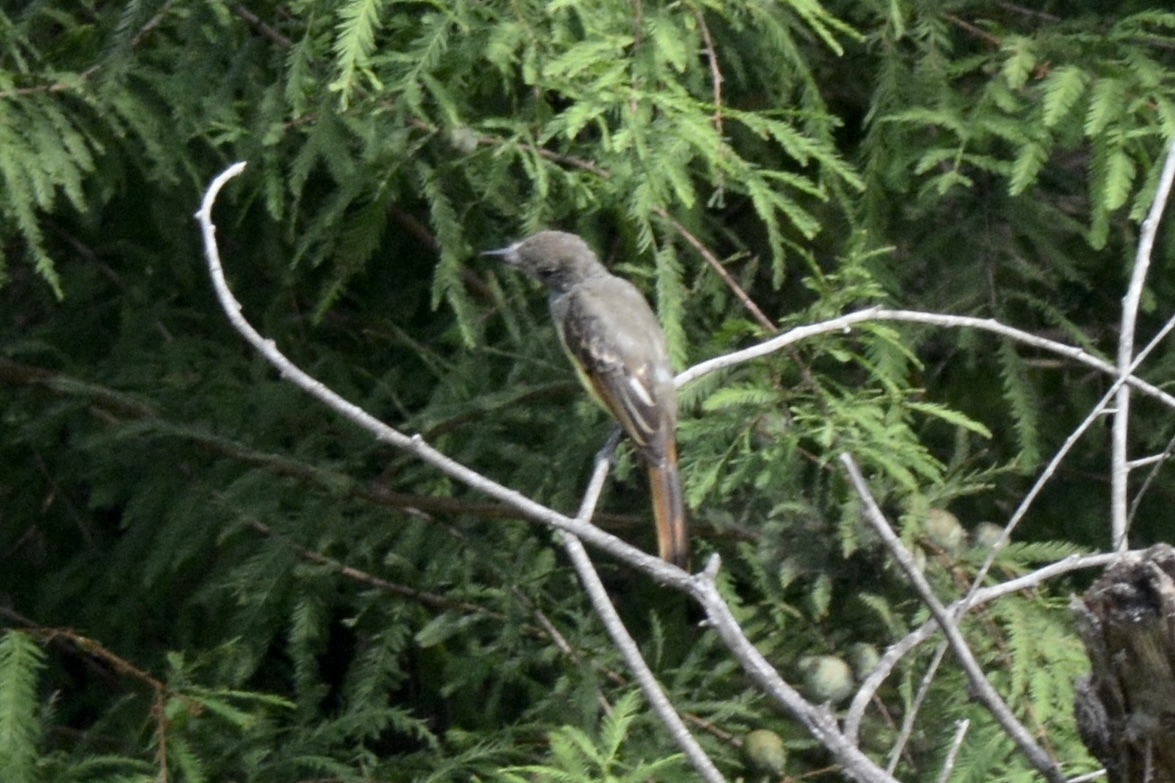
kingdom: Animalia
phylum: Chordata
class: Aves
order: Passeriformes
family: Tyrannidae
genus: Myiarchus
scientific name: Myiarchus crinitus
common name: Great crested flycatcher
